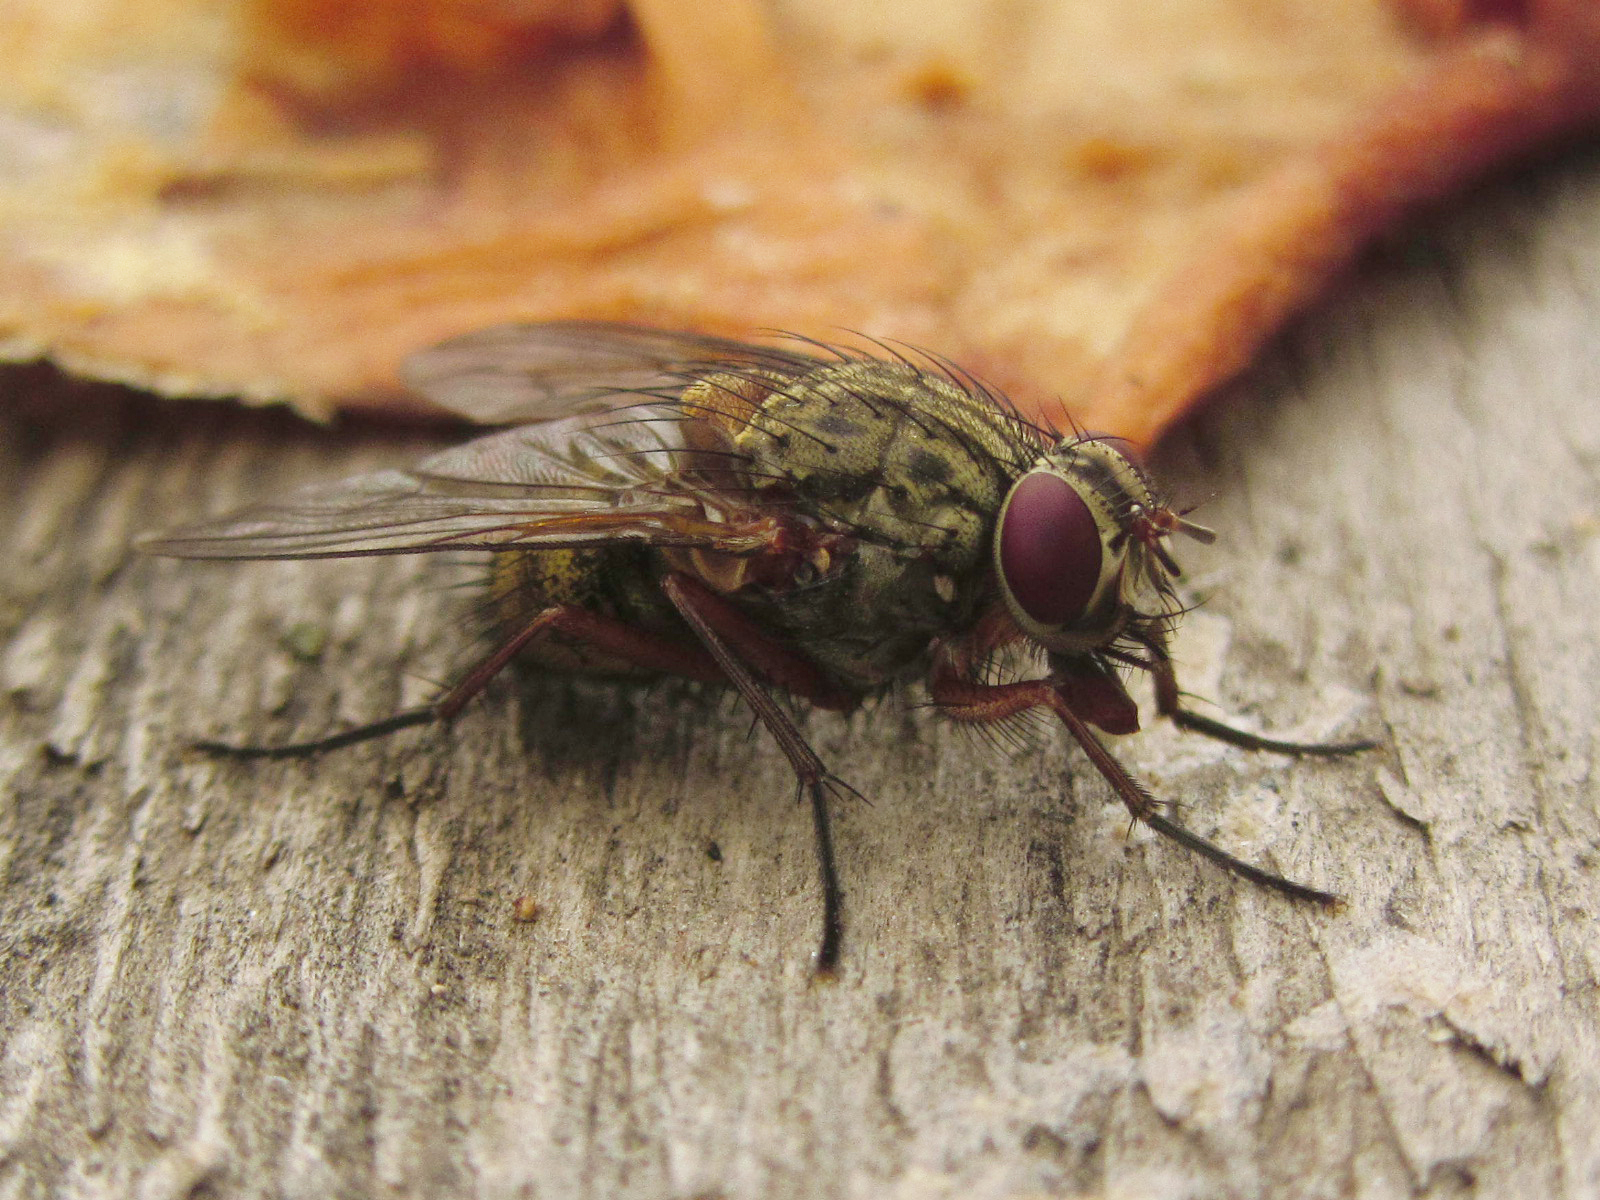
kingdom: Animalia
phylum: Arthropoda
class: Insecta
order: Diptera
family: Muscidae
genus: Phaonia
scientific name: Phaonia valida
